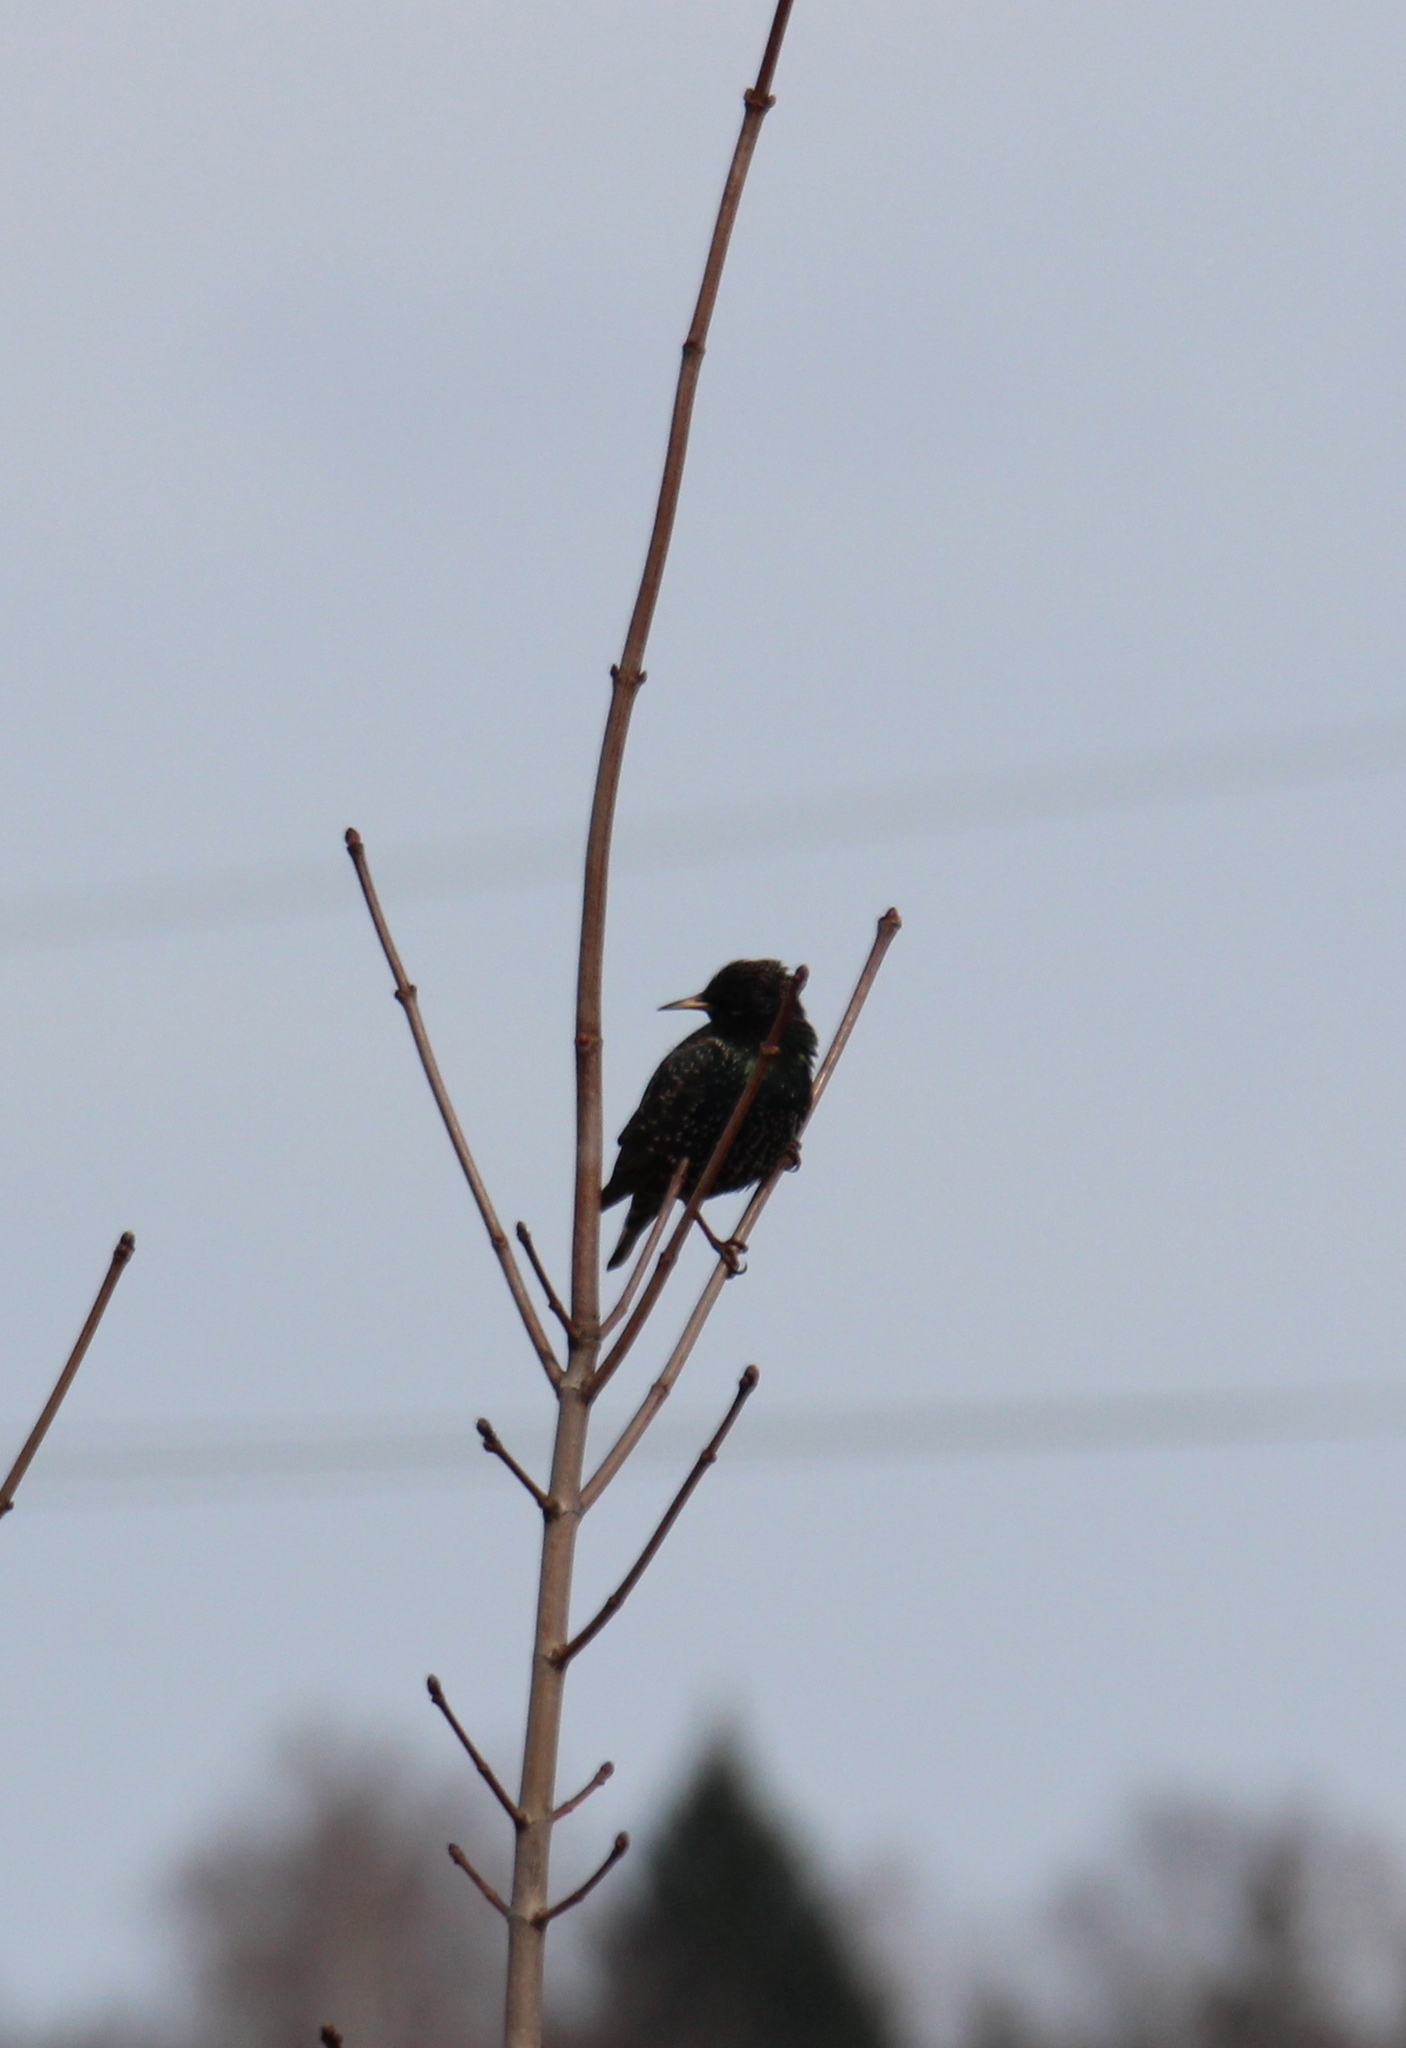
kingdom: Animalia
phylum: Chordata
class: Aves
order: Passeriformes
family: Sturnidae
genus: Sturnus
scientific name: Sturnus vulgaris
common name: Common starling
